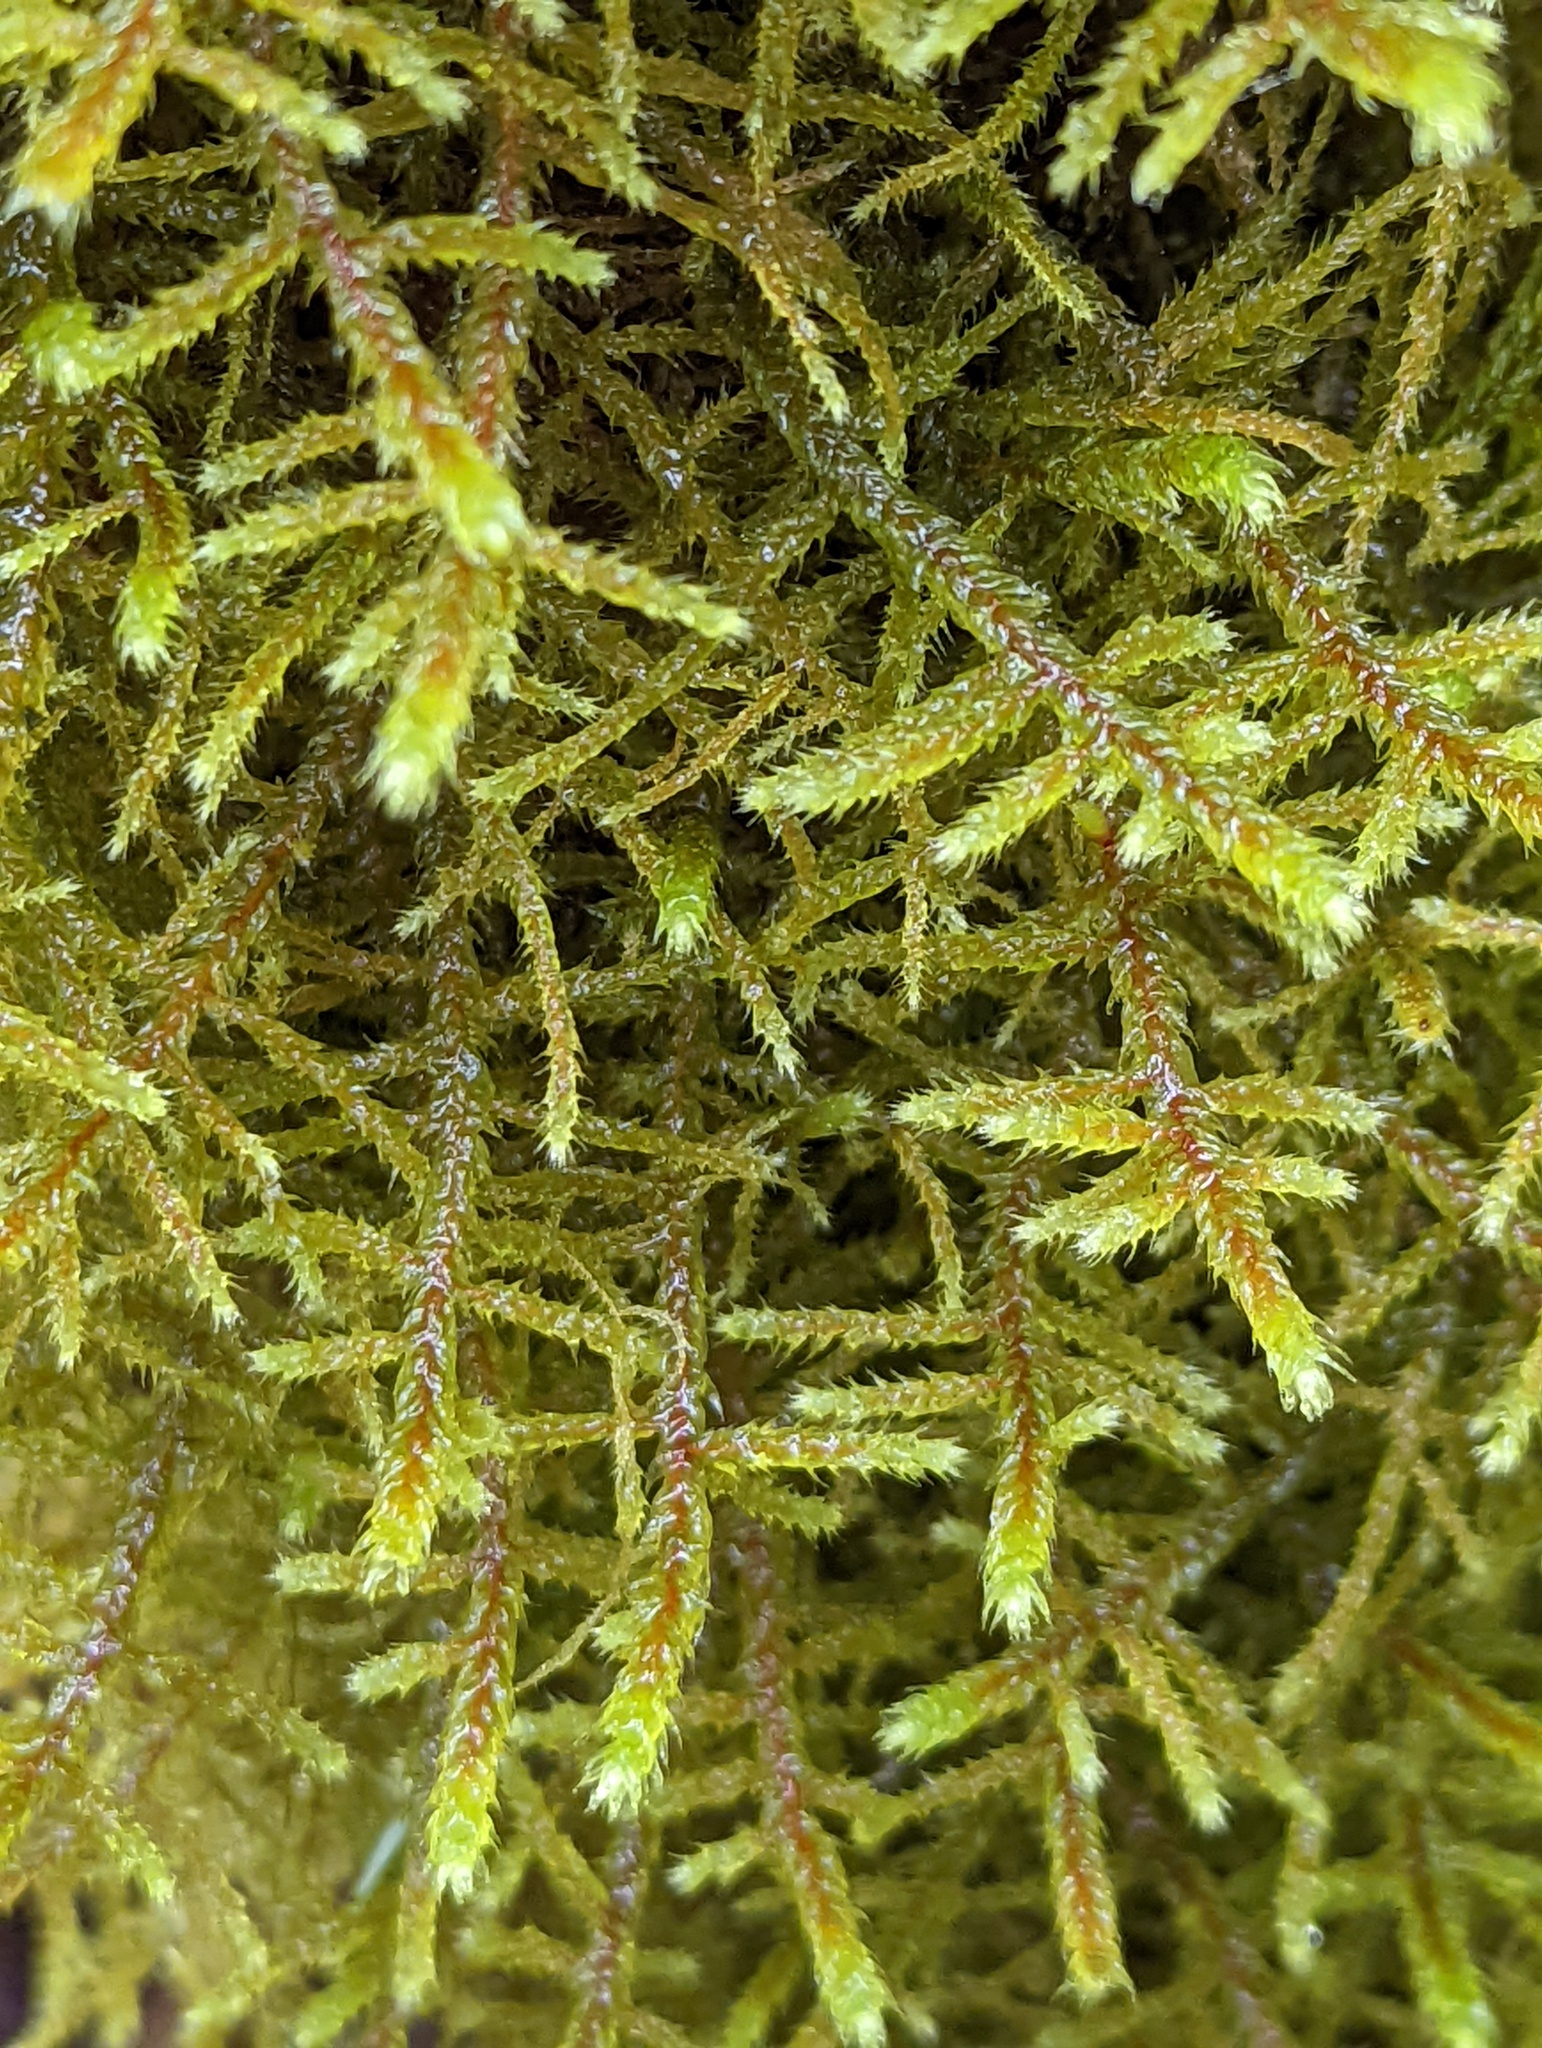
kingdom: Plantae
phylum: Bryophyta
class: Bryopsida
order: Hypnales
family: Antitrichiaceae
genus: Antitrichia
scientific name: Antitrichia curtipendula
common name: Pendulous wing-moss
